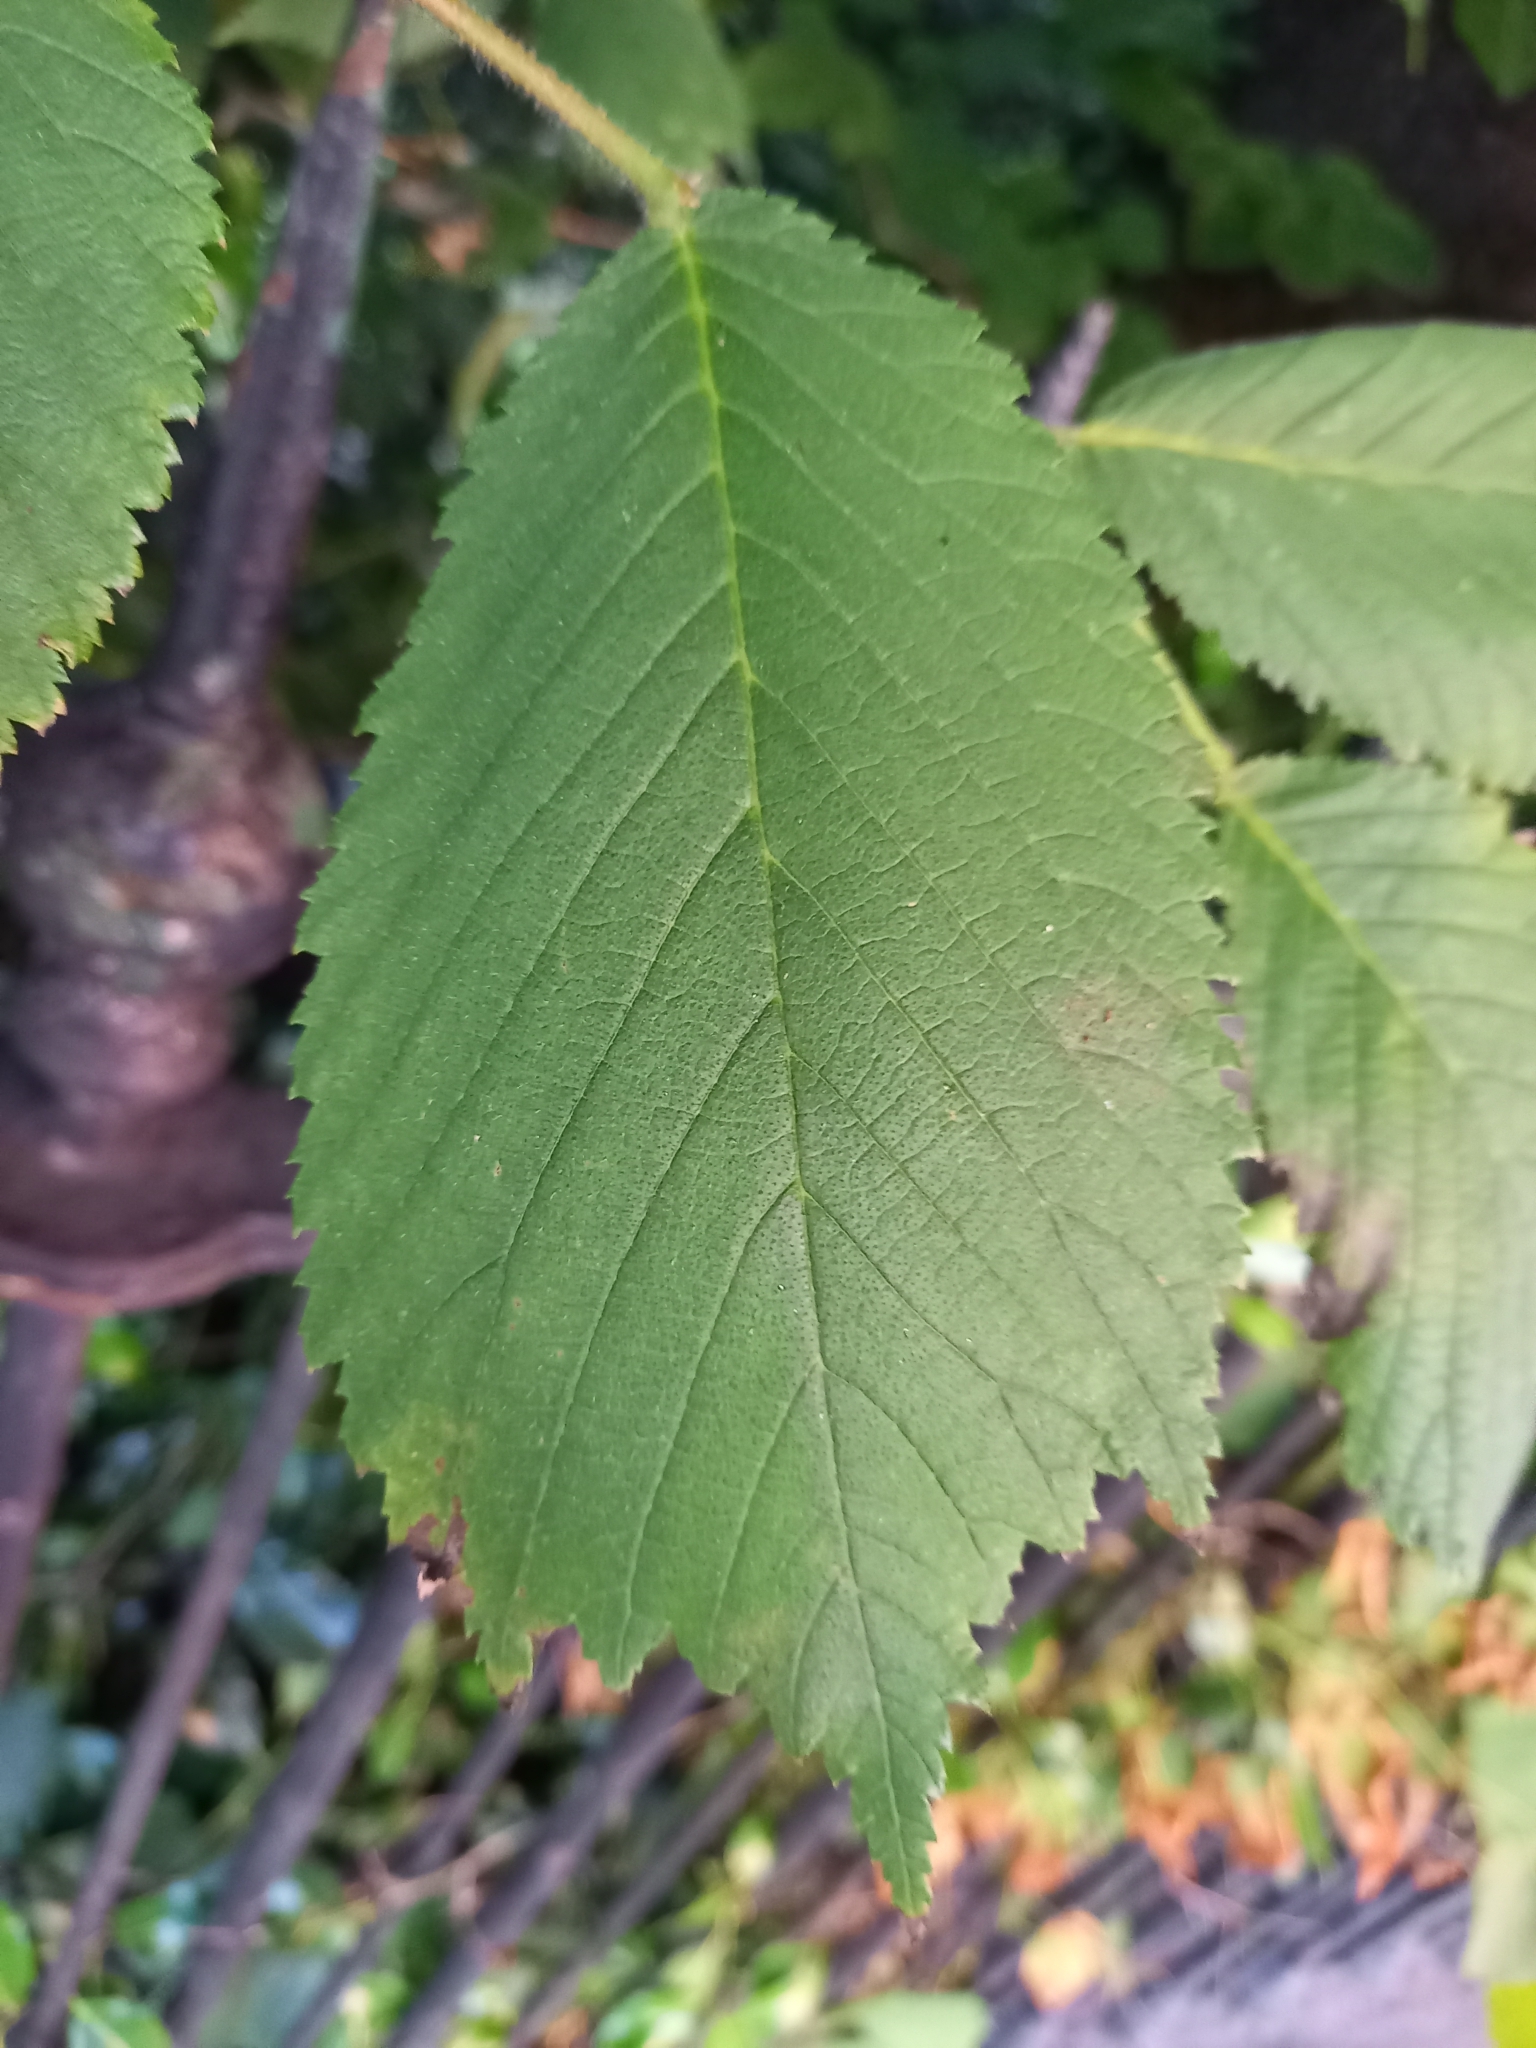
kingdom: Plantae
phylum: Tracheophyta
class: Magnoliopsida
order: Rosales
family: Ulmaceae
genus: Ulmus
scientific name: Ulmus glabra
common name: Wych elm
